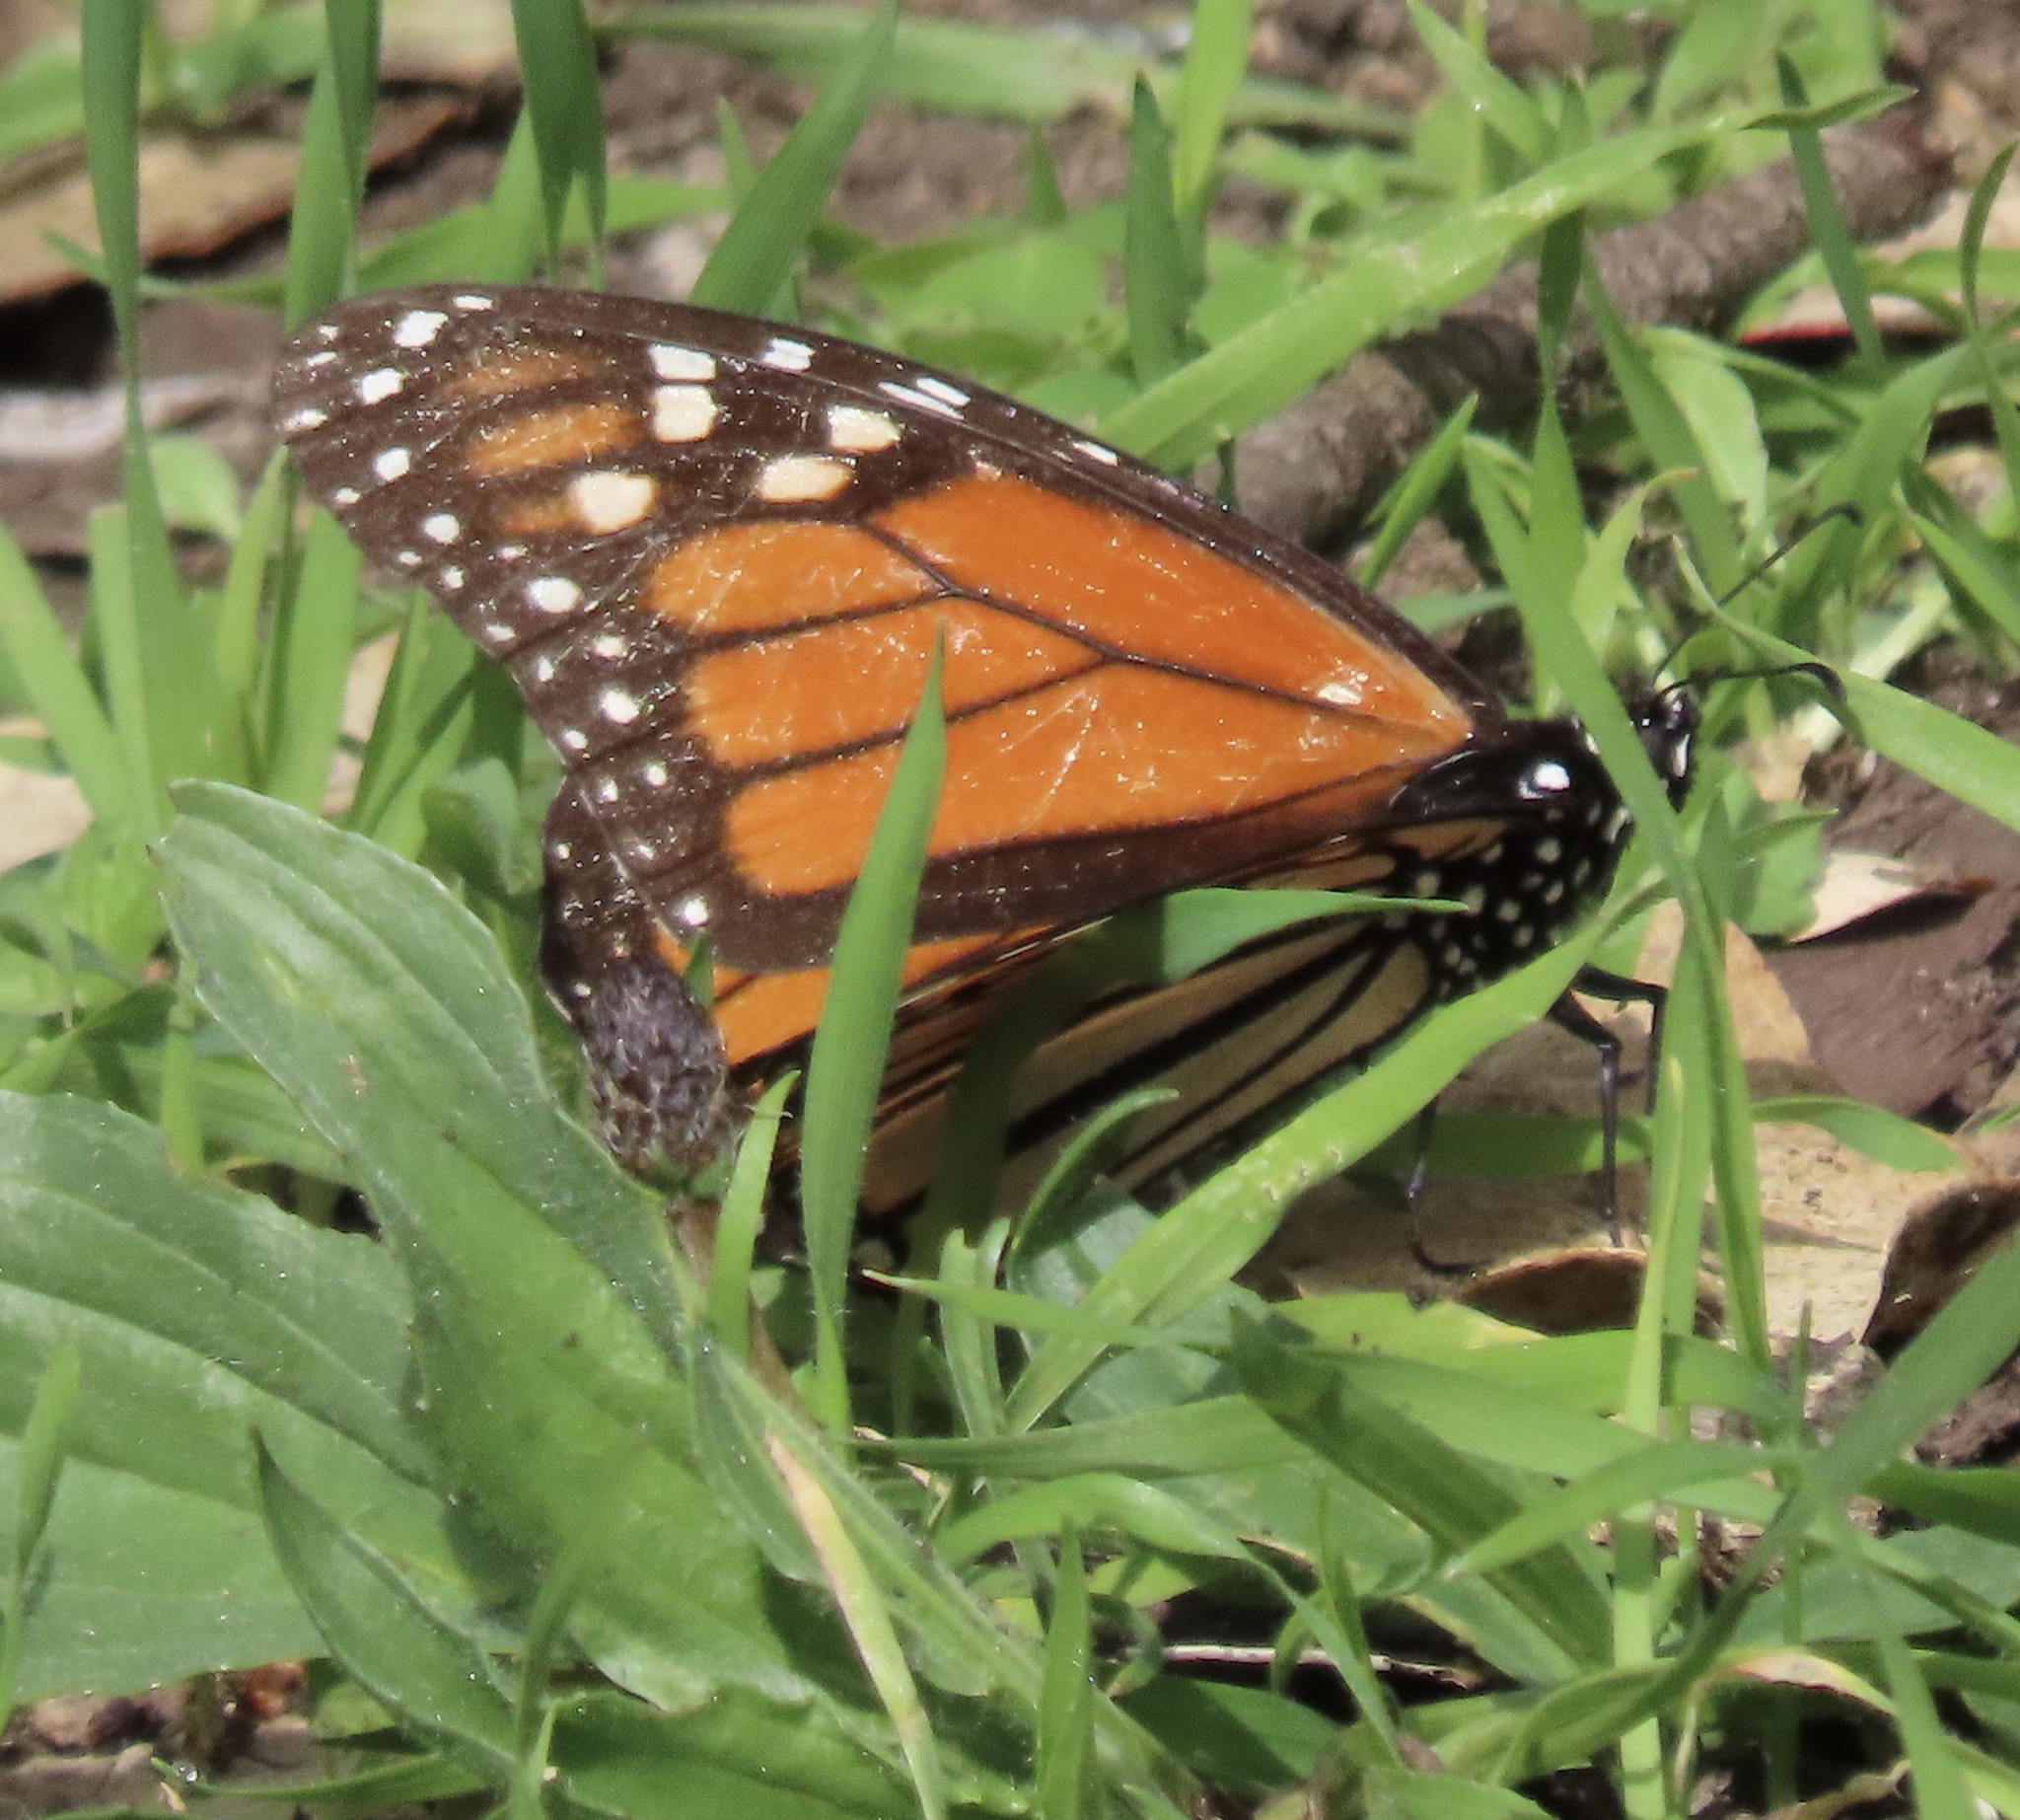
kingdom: Animalia
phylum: Arthropoda
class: Insecta
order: Lepidoptera
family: Nymphalidae
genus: Danaus
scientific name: Danaus plexippus
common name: Monarch
